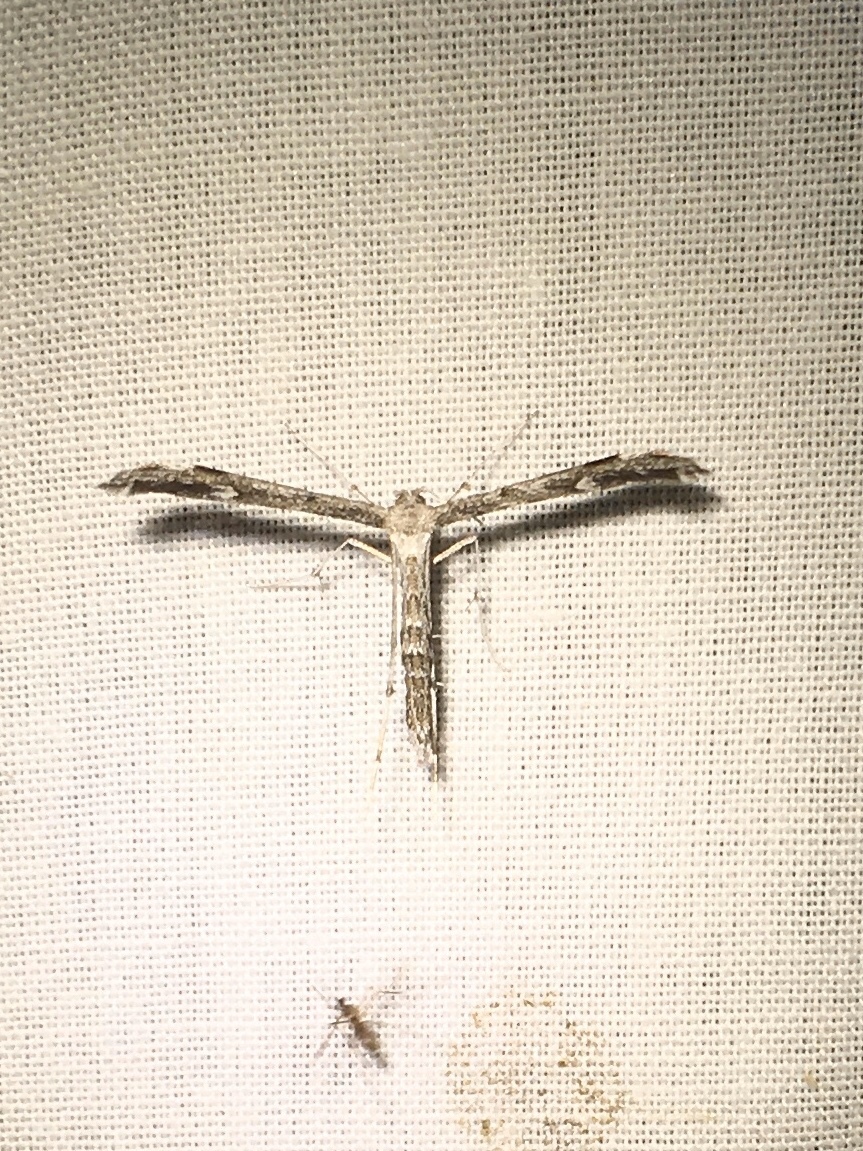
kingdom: Animalia
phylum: Arthropoda
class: Insecta
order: Lepidoptera
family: Pterophoridae
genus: Hellinsia
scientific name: Hellinsia inquinatus
